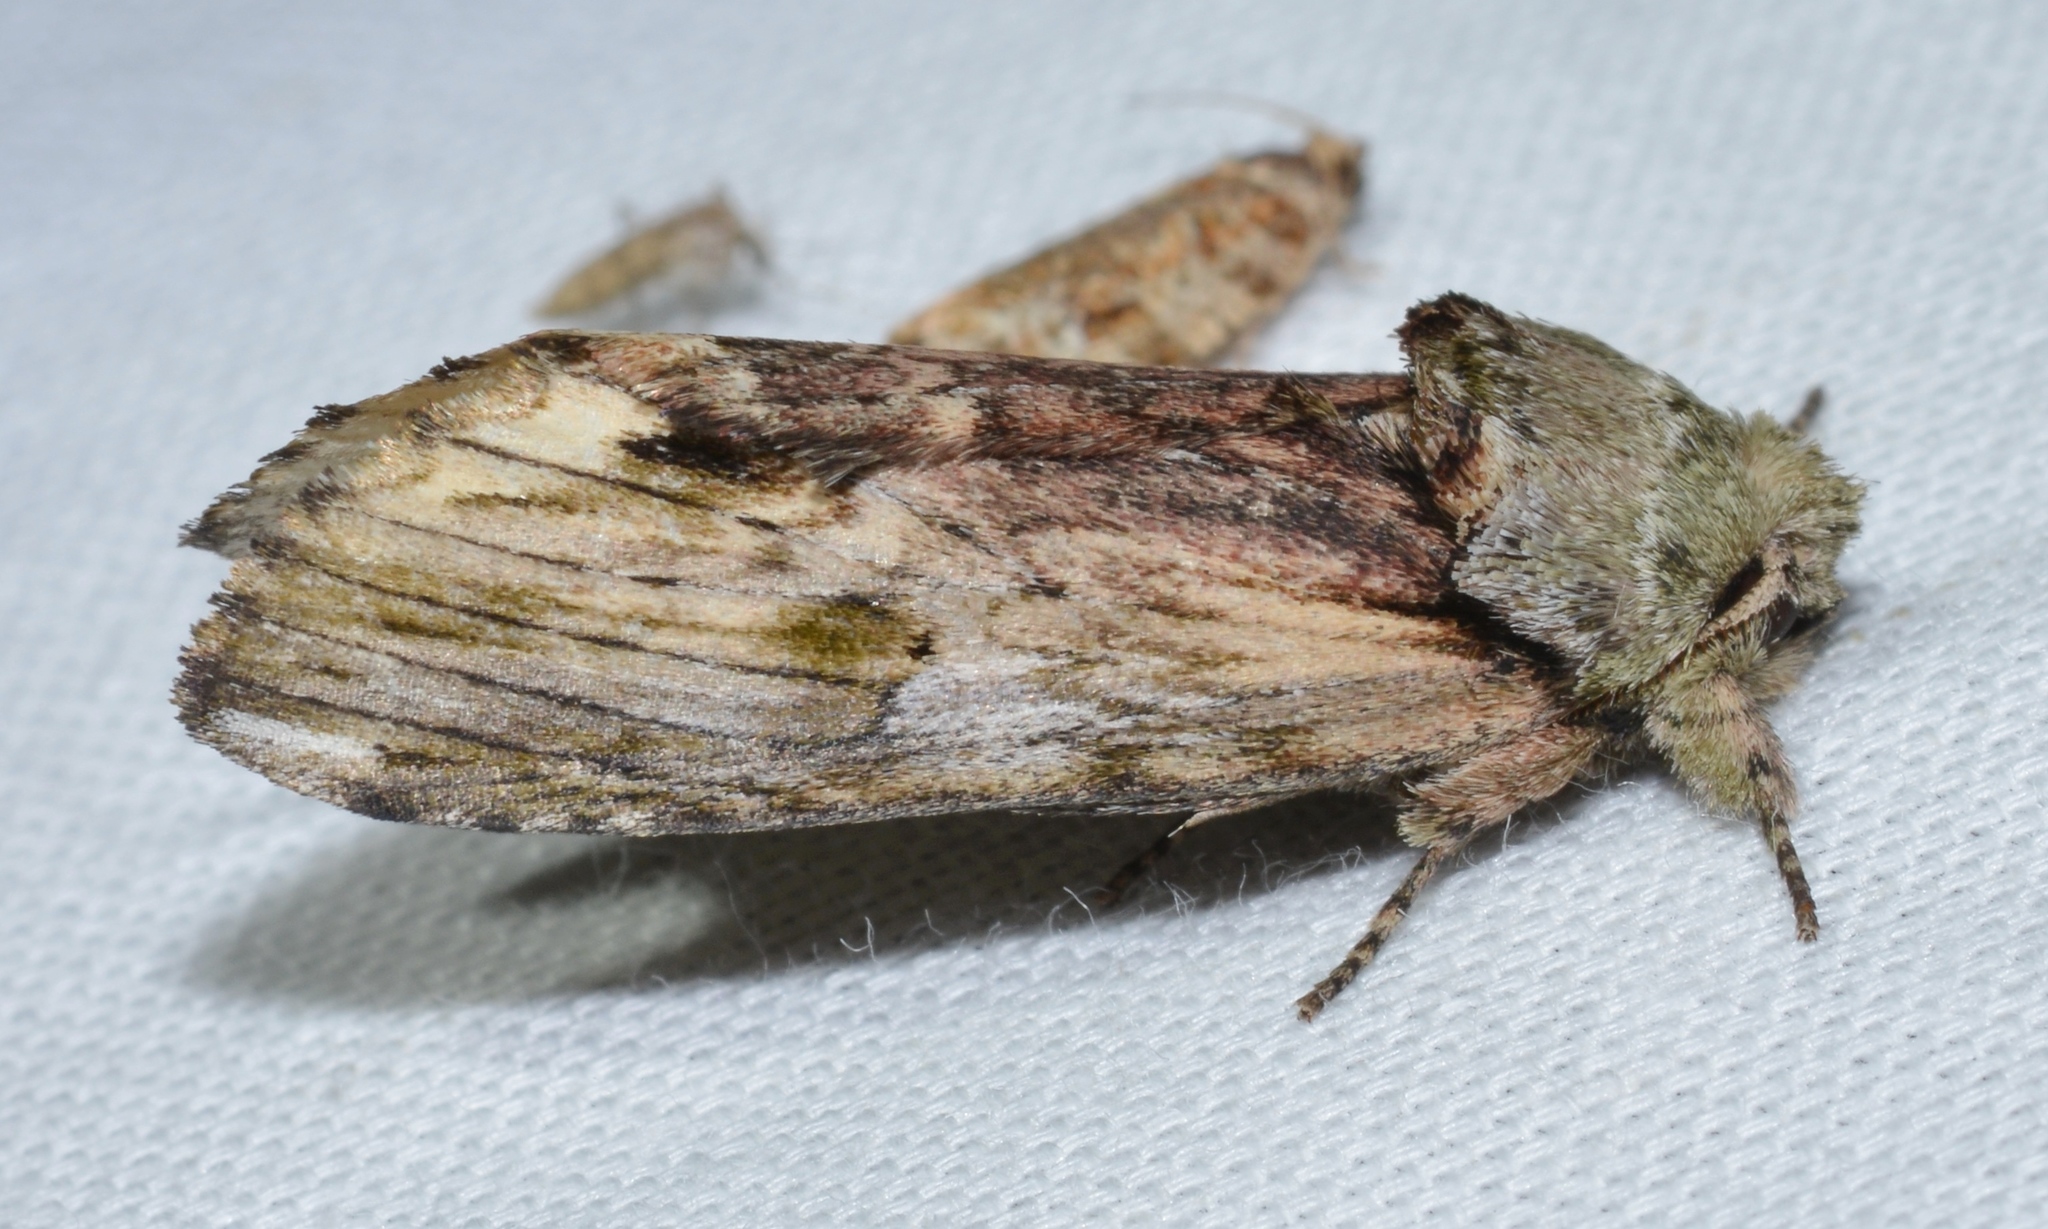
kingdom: Animalia
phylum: Arthropoda
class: Insecta
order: Lepidoptera
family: Notodontidae
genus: Schizura
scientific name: Schizura
